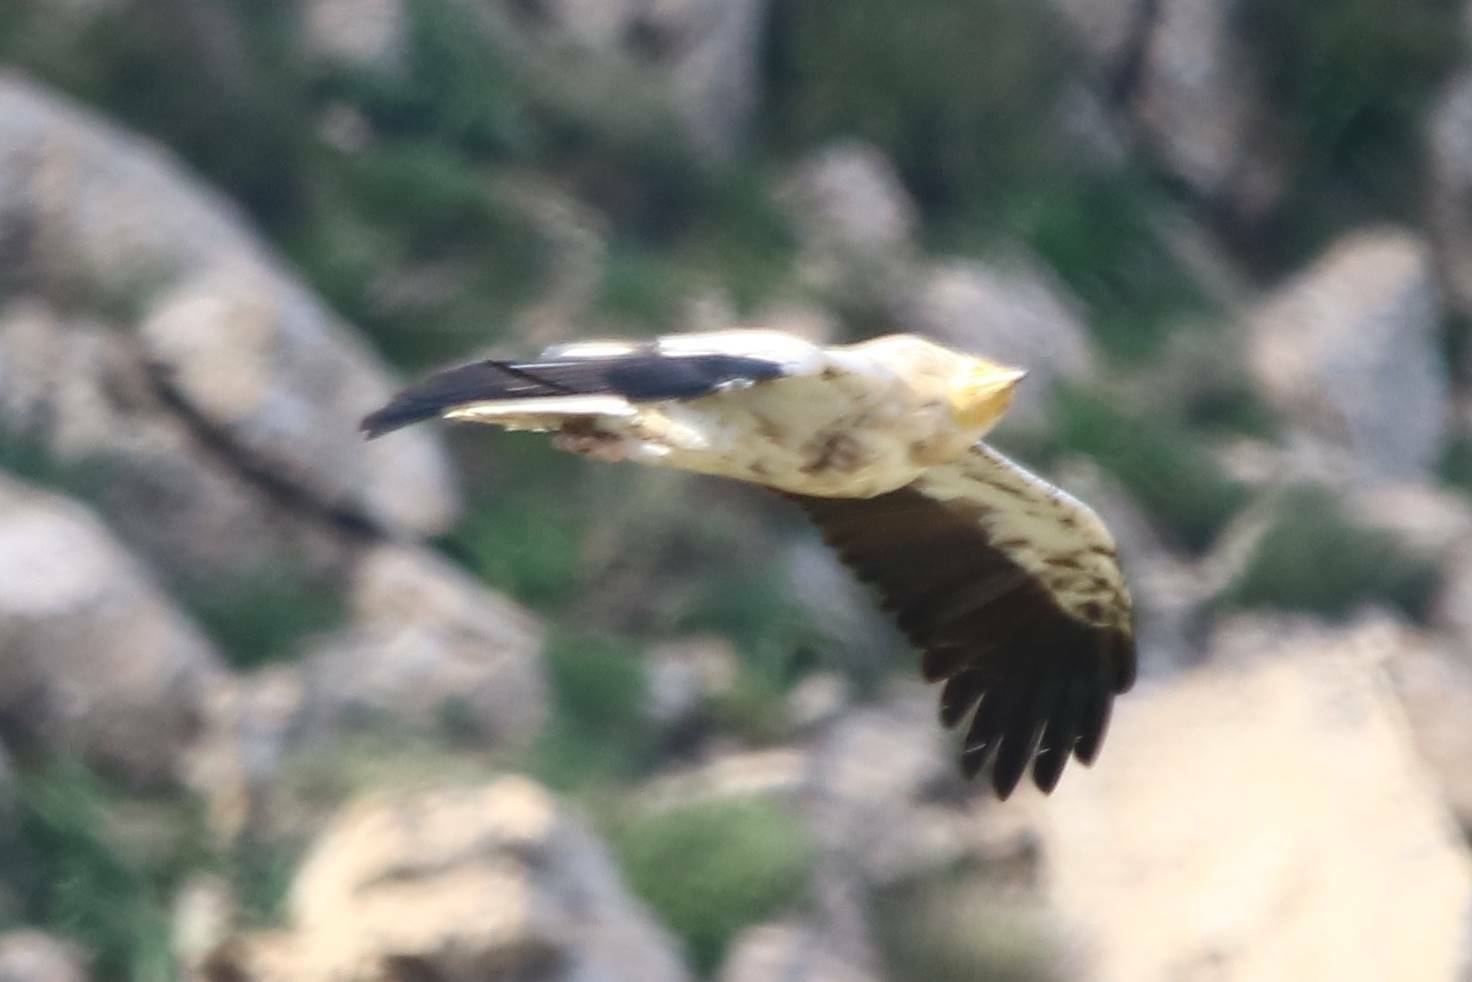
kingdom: Animalia
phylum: Chordata
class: Aves
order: Accipitriformes
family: Accipitridae
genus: Neophron
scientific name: Neophron percnopterus
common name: Egyptian vulture
